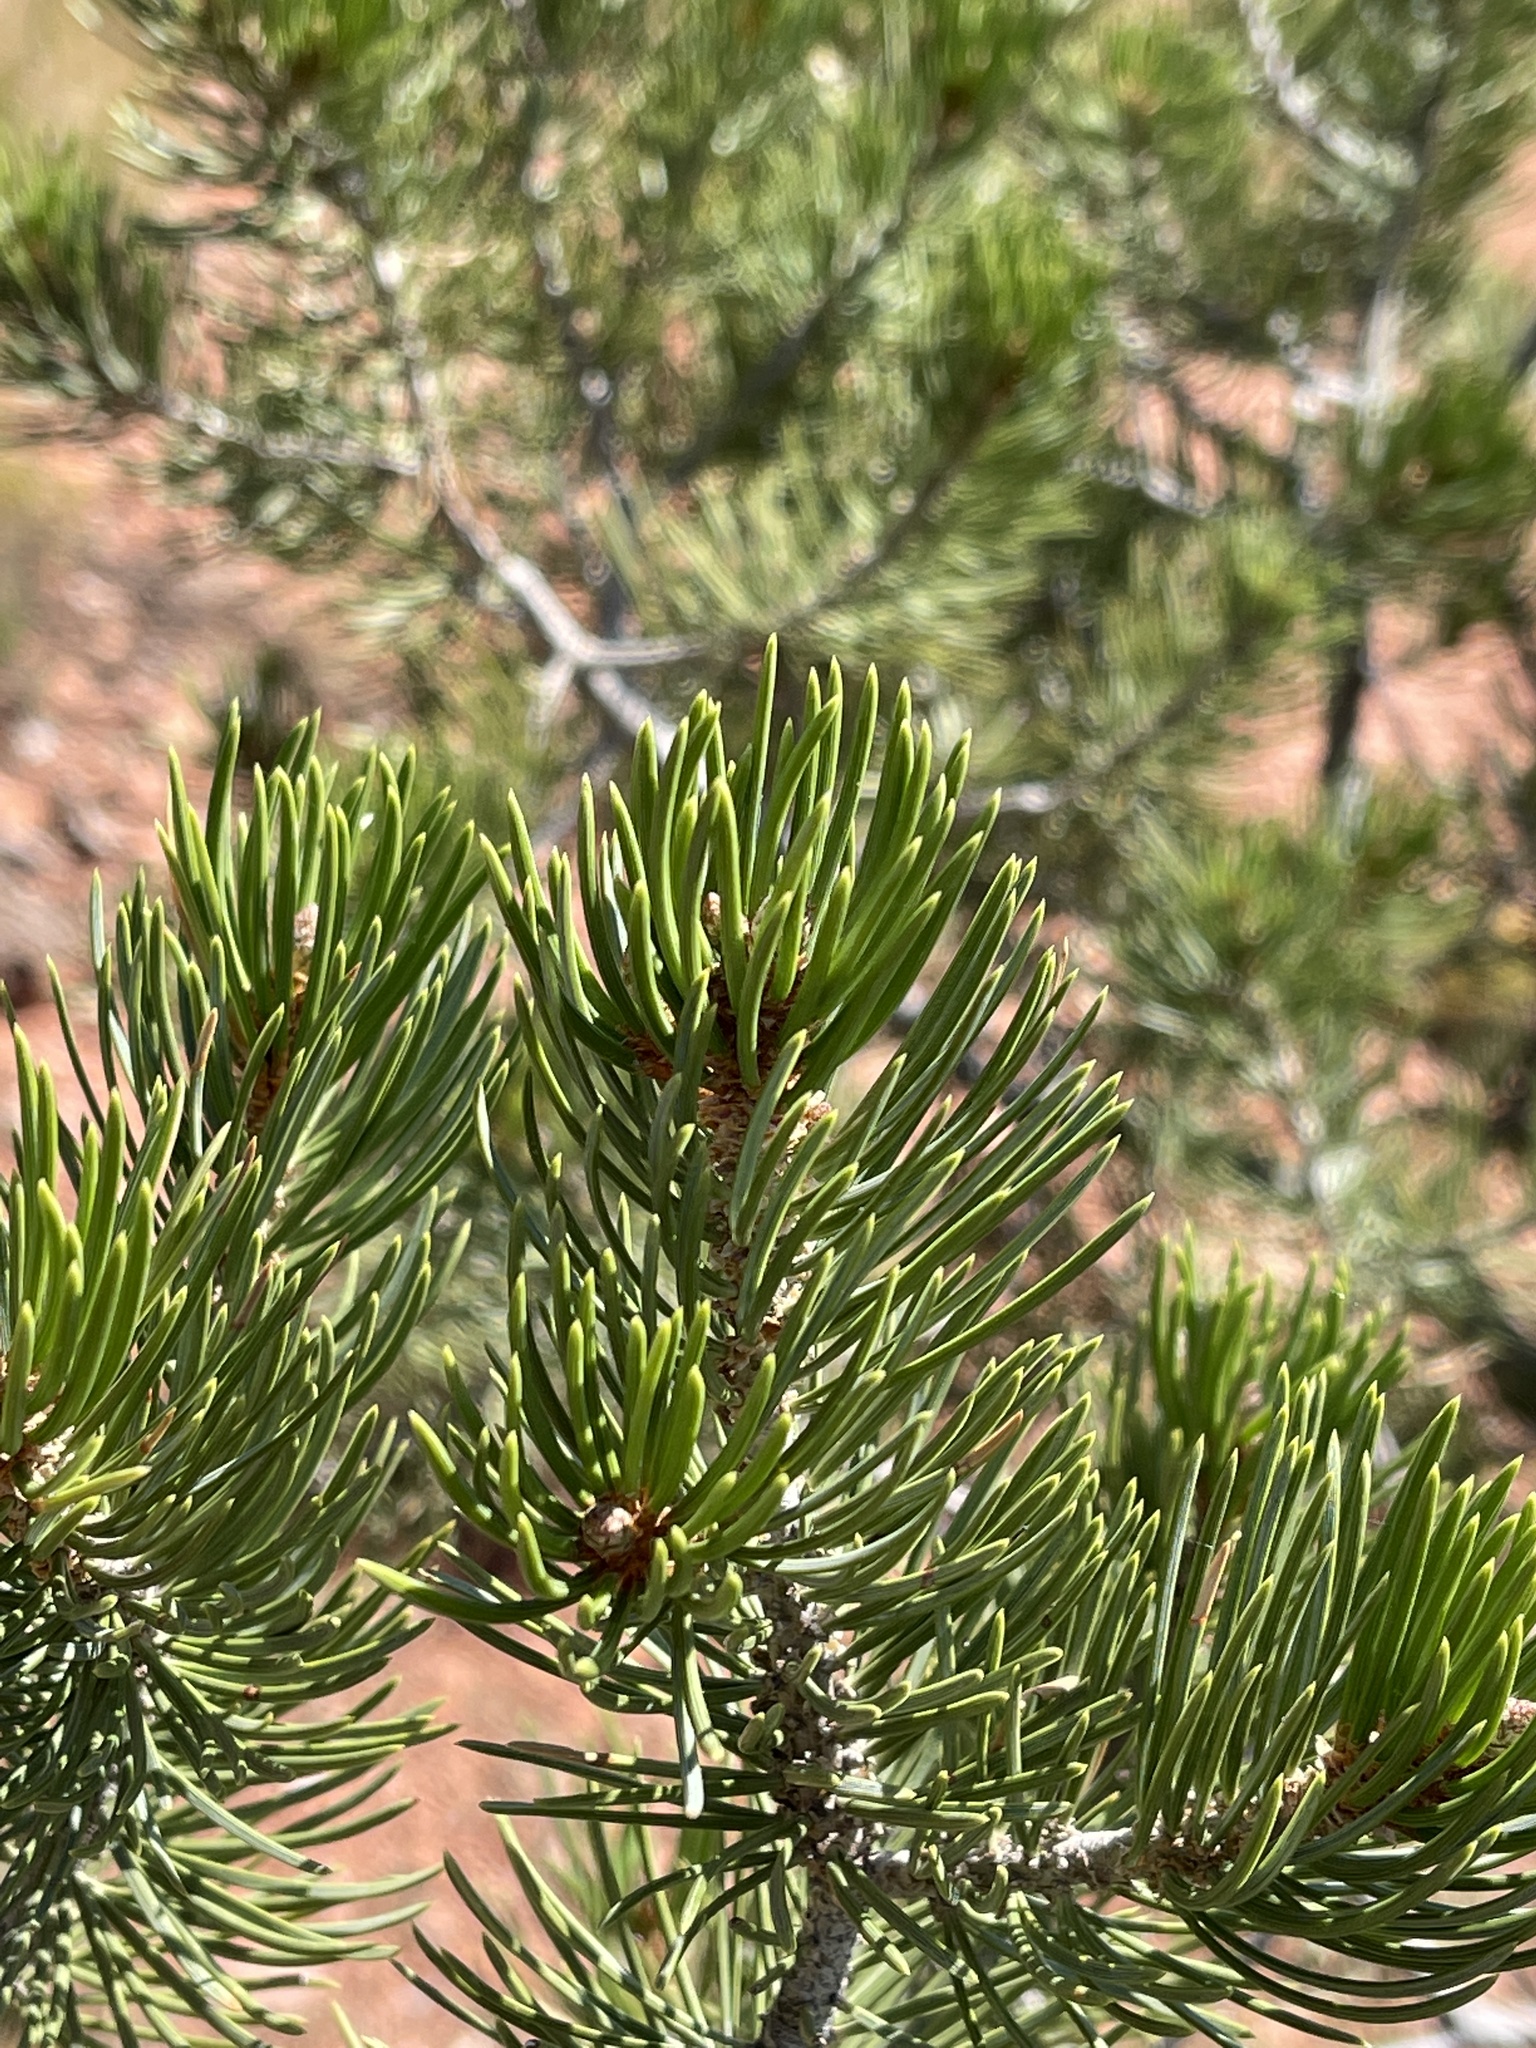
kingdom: Plantae
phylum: Tracheophyta
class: Pinopsida
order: Pinales
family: Pinaceae
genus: Pinus
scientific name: Pinus edulis
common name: Colorado pinyon
